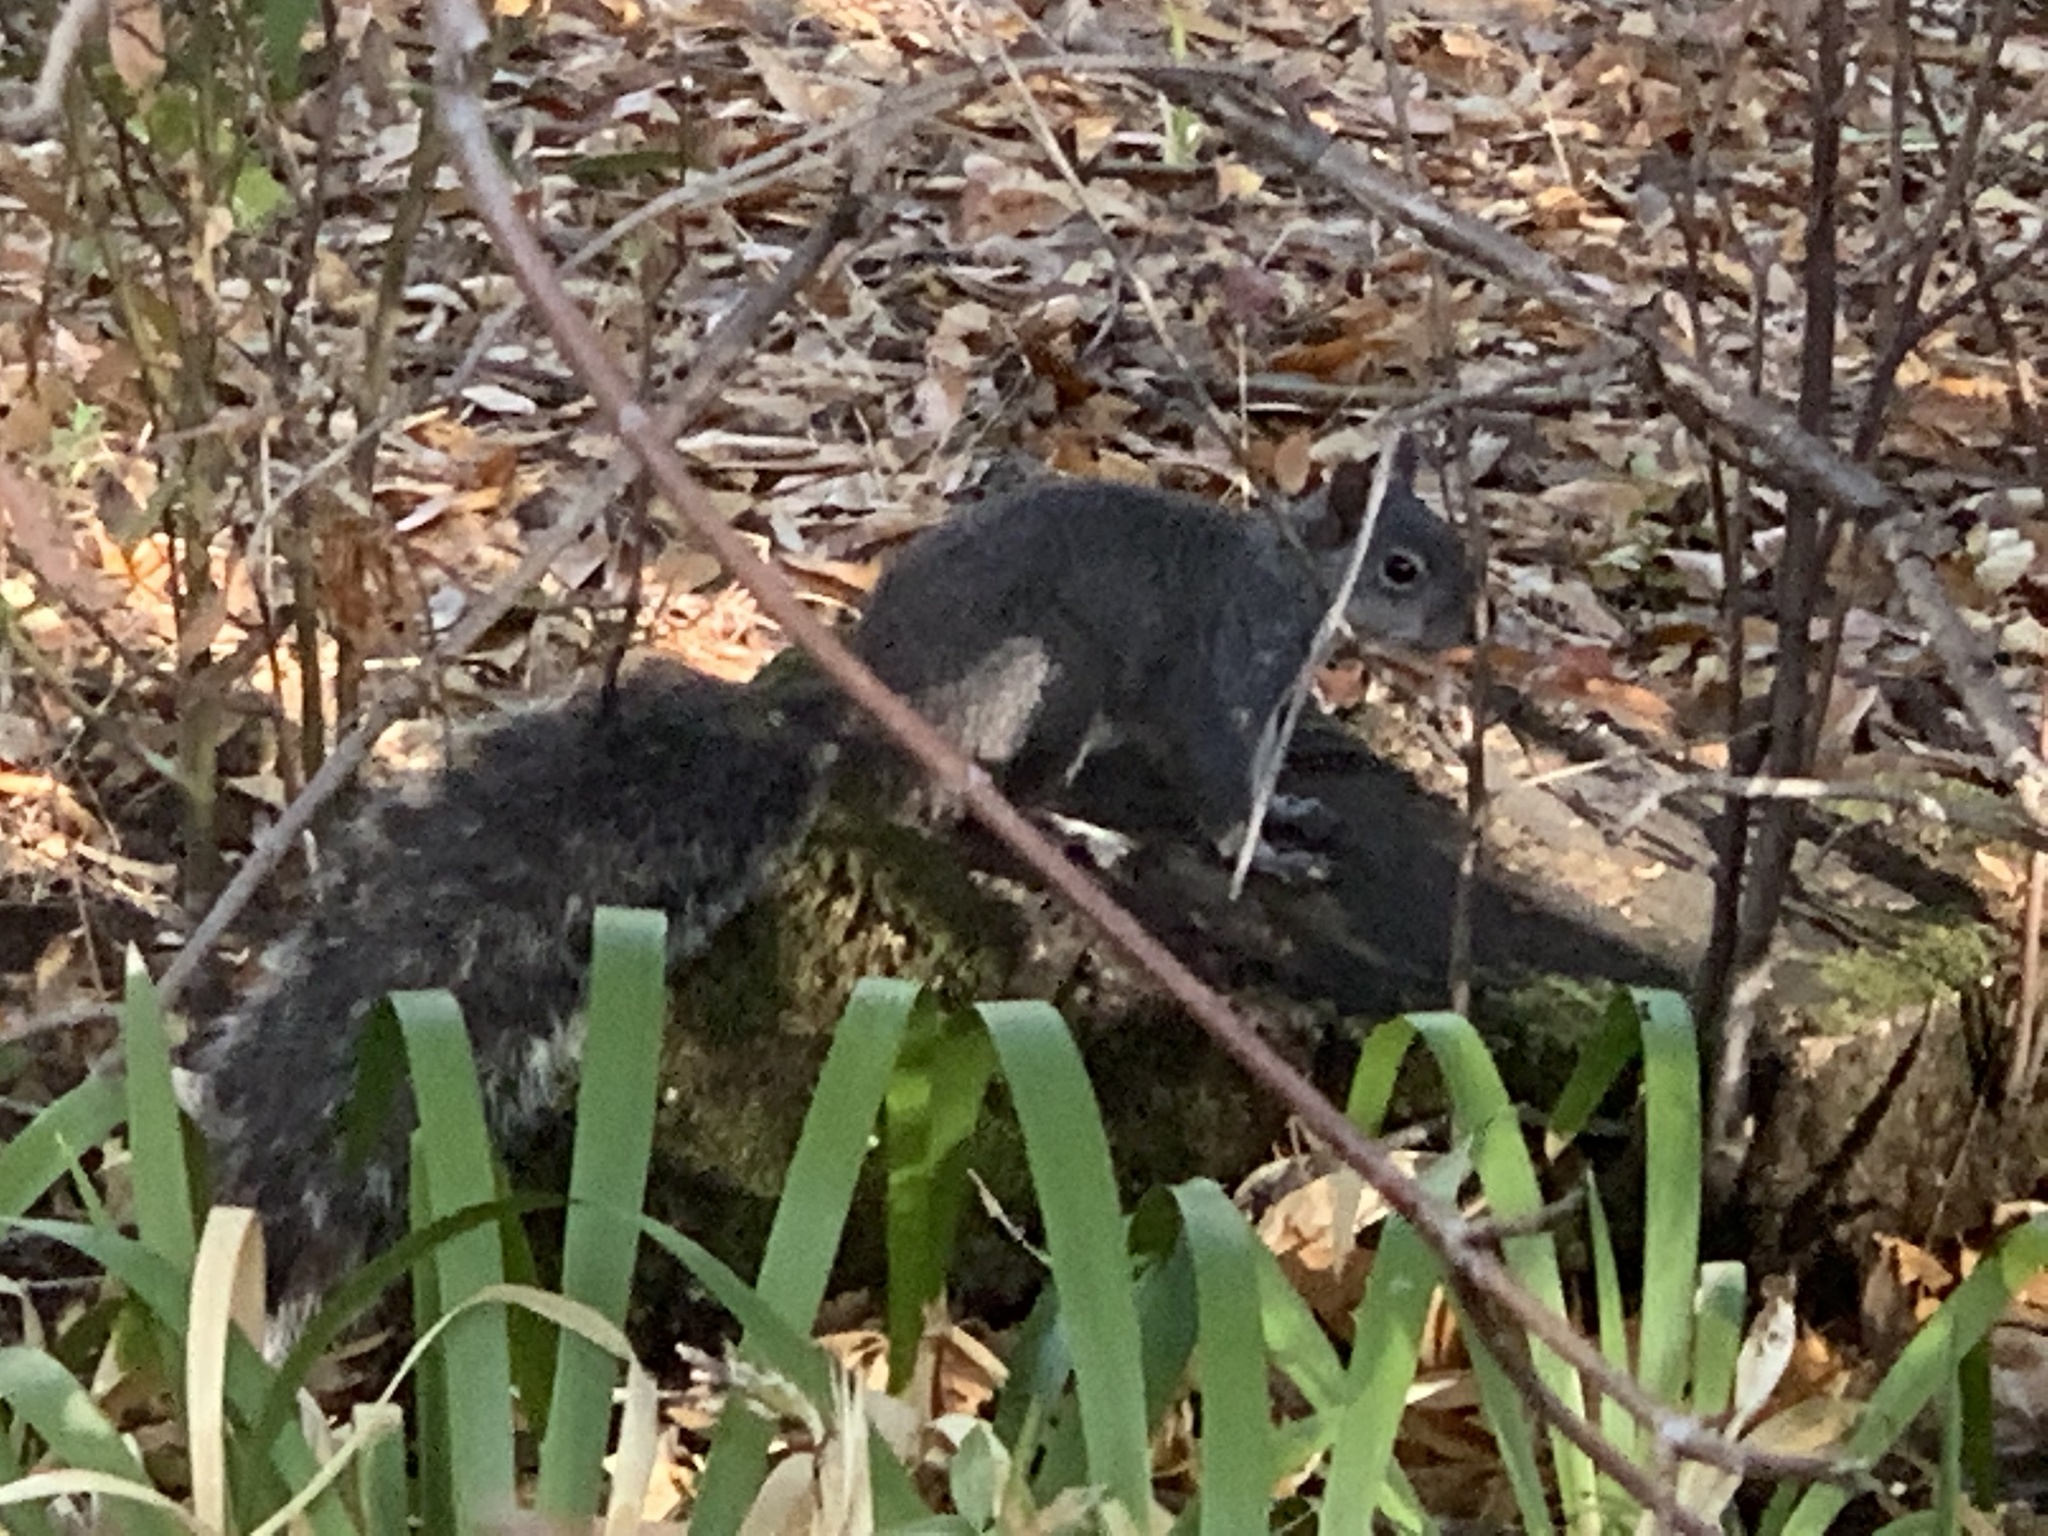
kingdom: Animalia
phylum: Chordata
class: Mammalia
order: Rodentia
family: Sciuridae
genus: Sciurus
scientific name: Sciurus griseus
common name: Western gray squirrel
